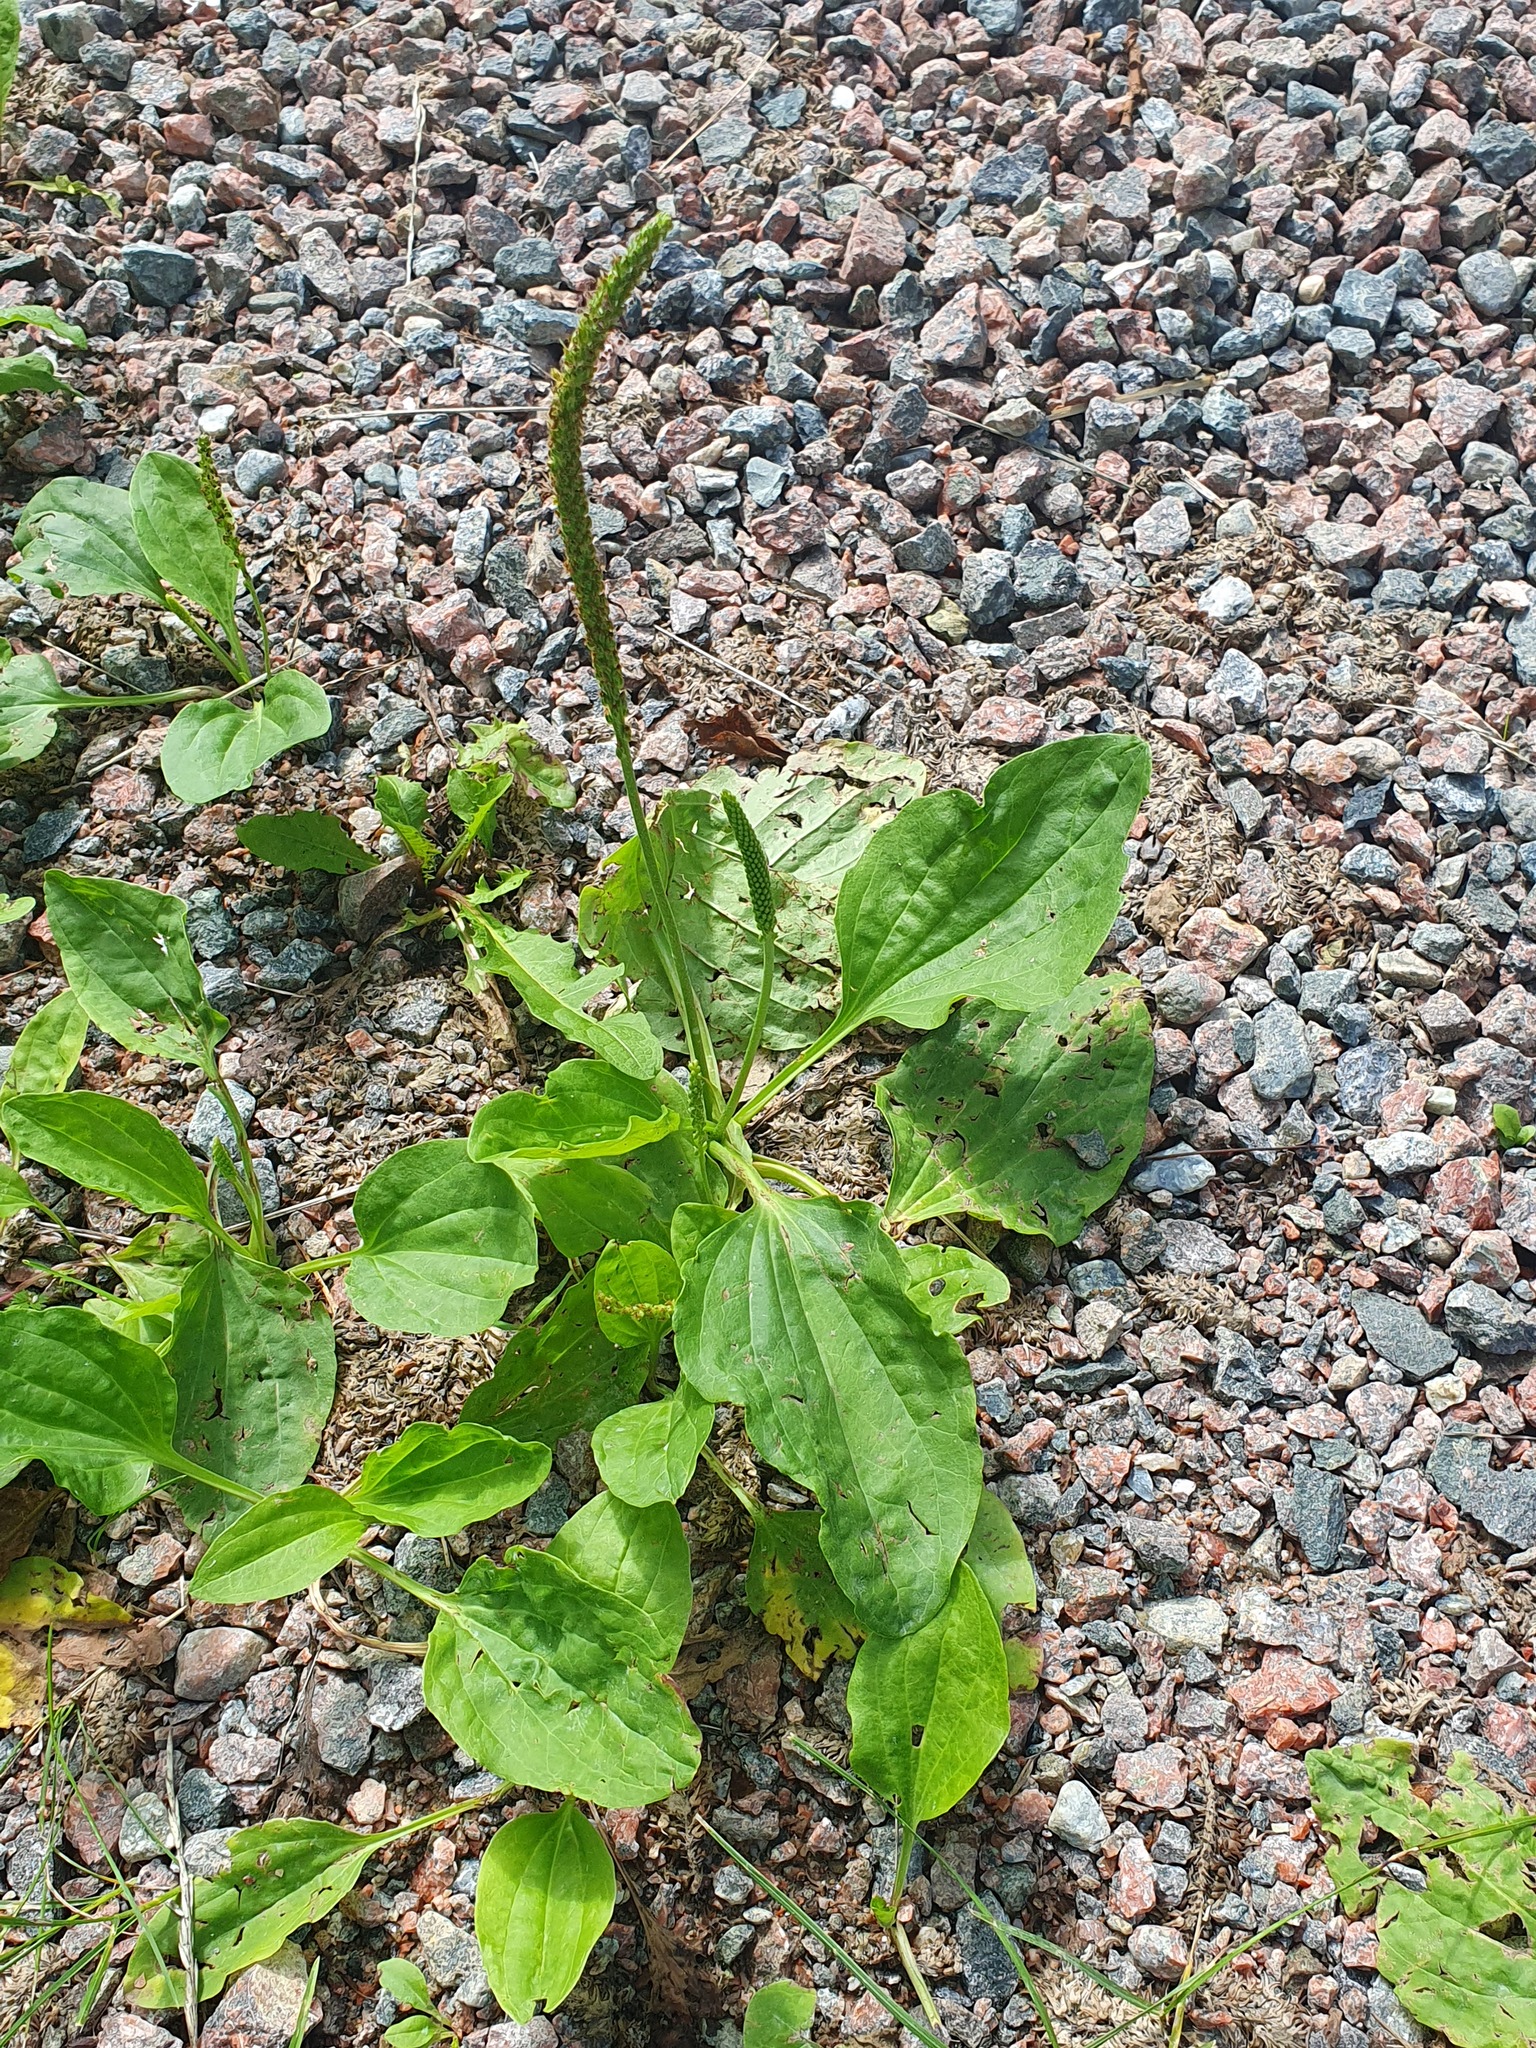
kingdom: Plantae
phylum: Tracheophyta
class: Magnoliopsida
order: Lamiales
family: Plantaginaceae
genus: Plantago
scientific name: Plantago major
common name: Common plantain
